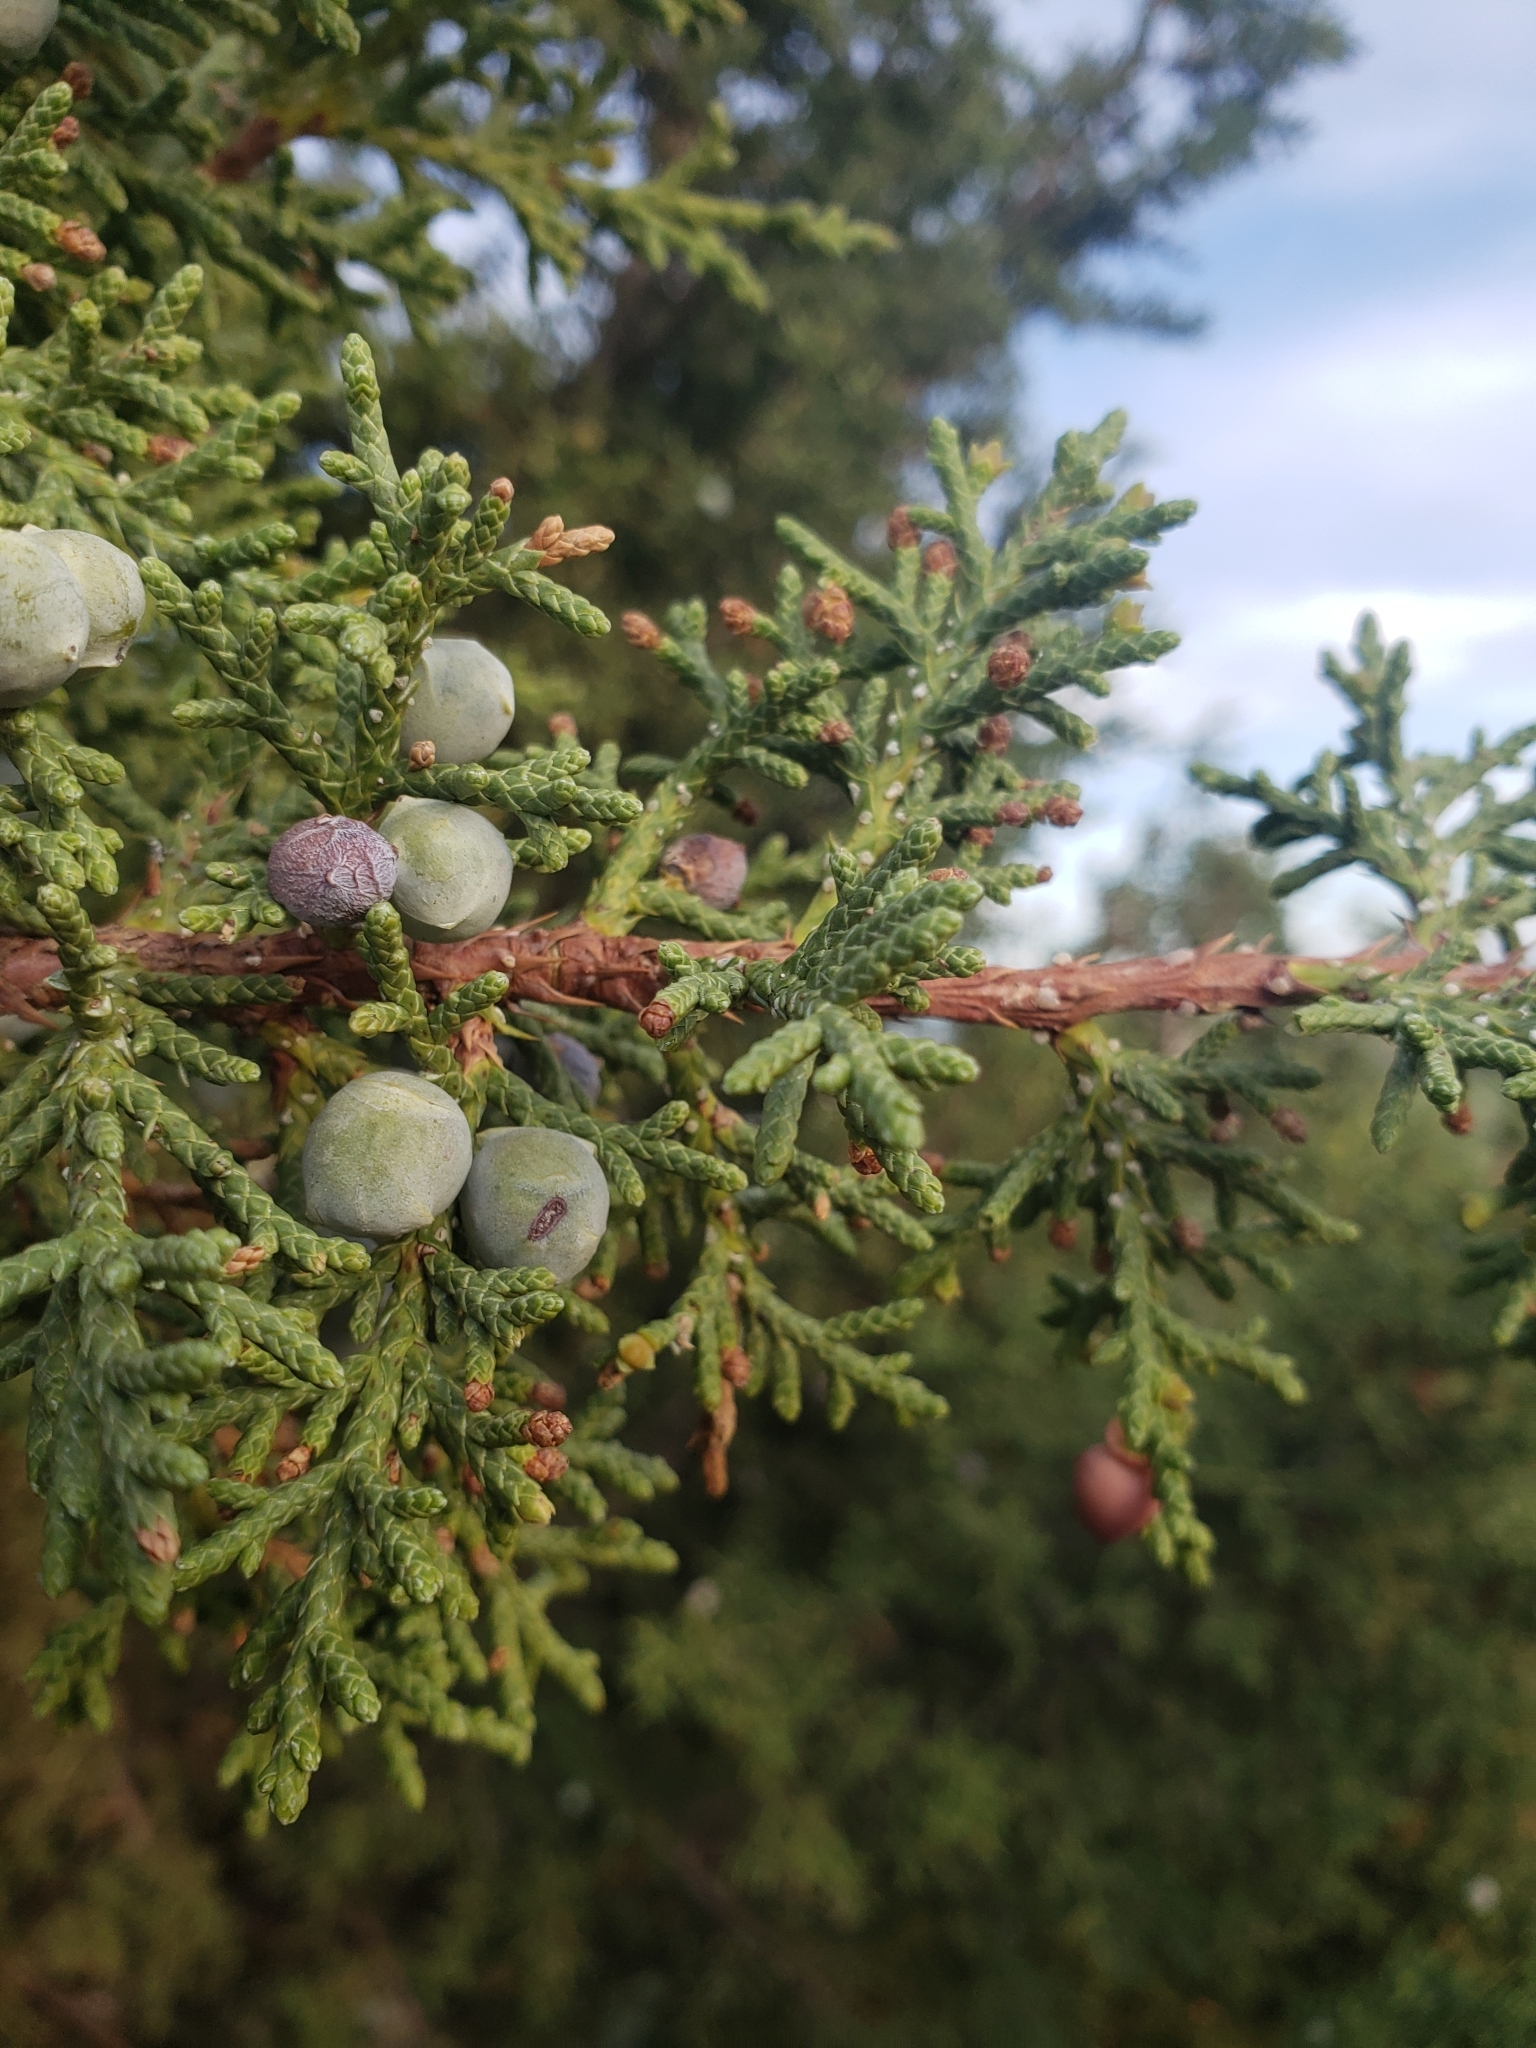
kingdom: Plantae
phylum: Tracheophyta
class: Pinopsida
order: Pinales
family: Cupressaceae
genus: Juniperus
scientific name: Juniperus osteosperma
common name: Utah juniper
